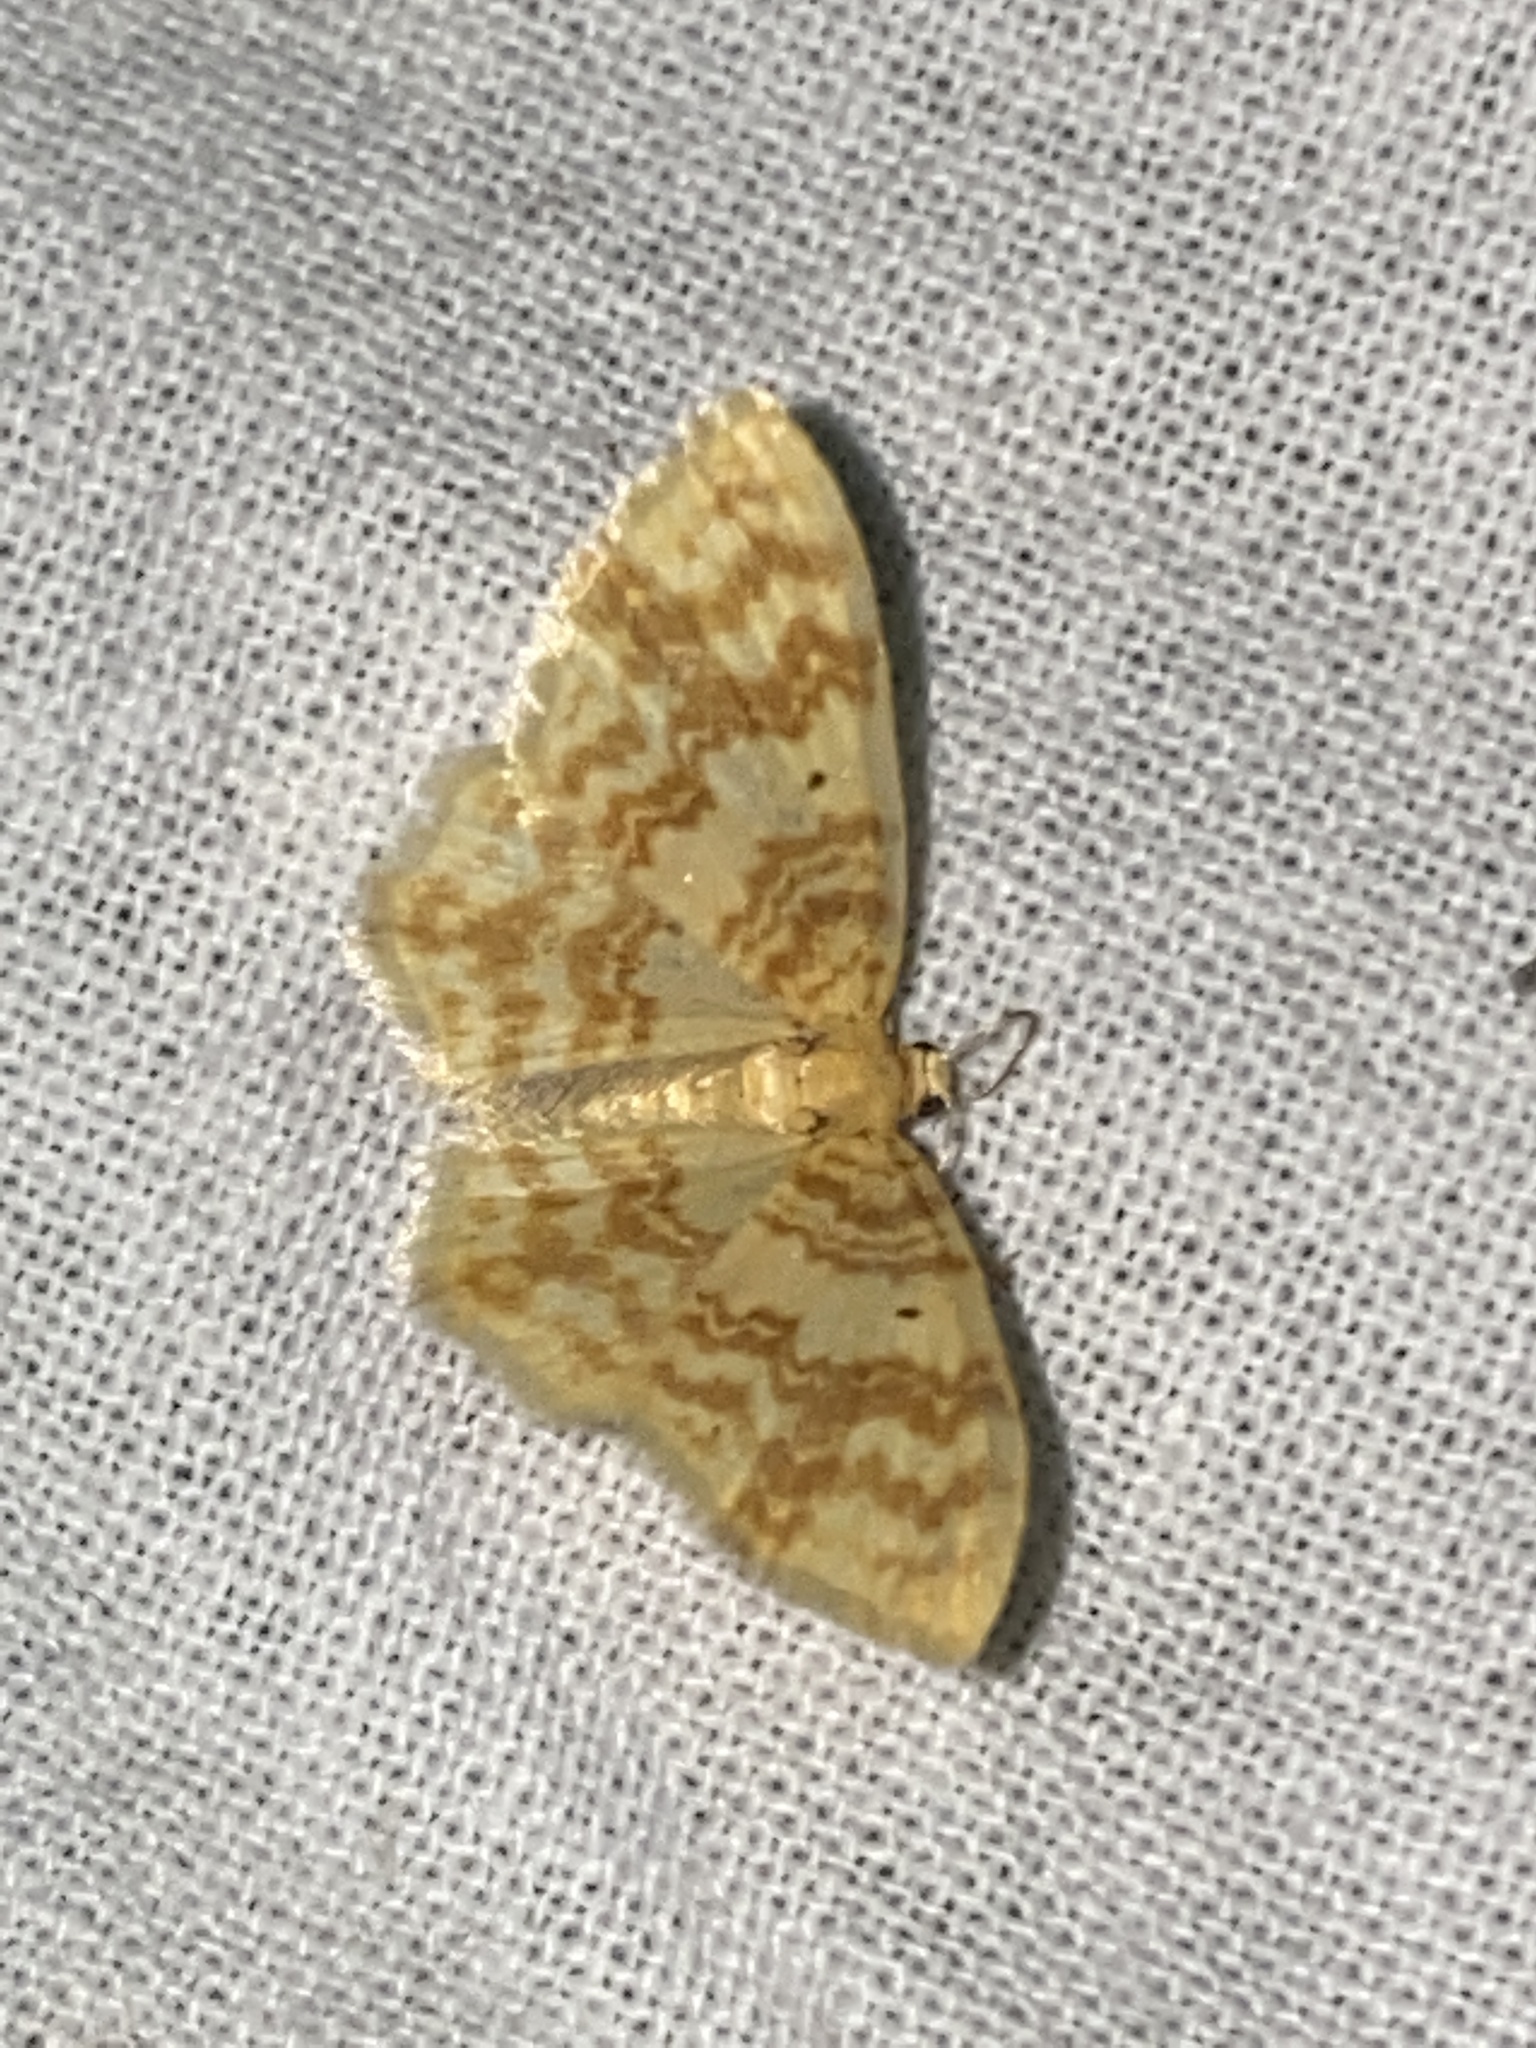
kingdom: Animalia
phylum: Arthropoda
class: Insecta
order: Lepidoptera
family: Geometridae
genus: Hydrelia
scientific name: Hydrelia flammeolaria
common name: Small yellow wave
